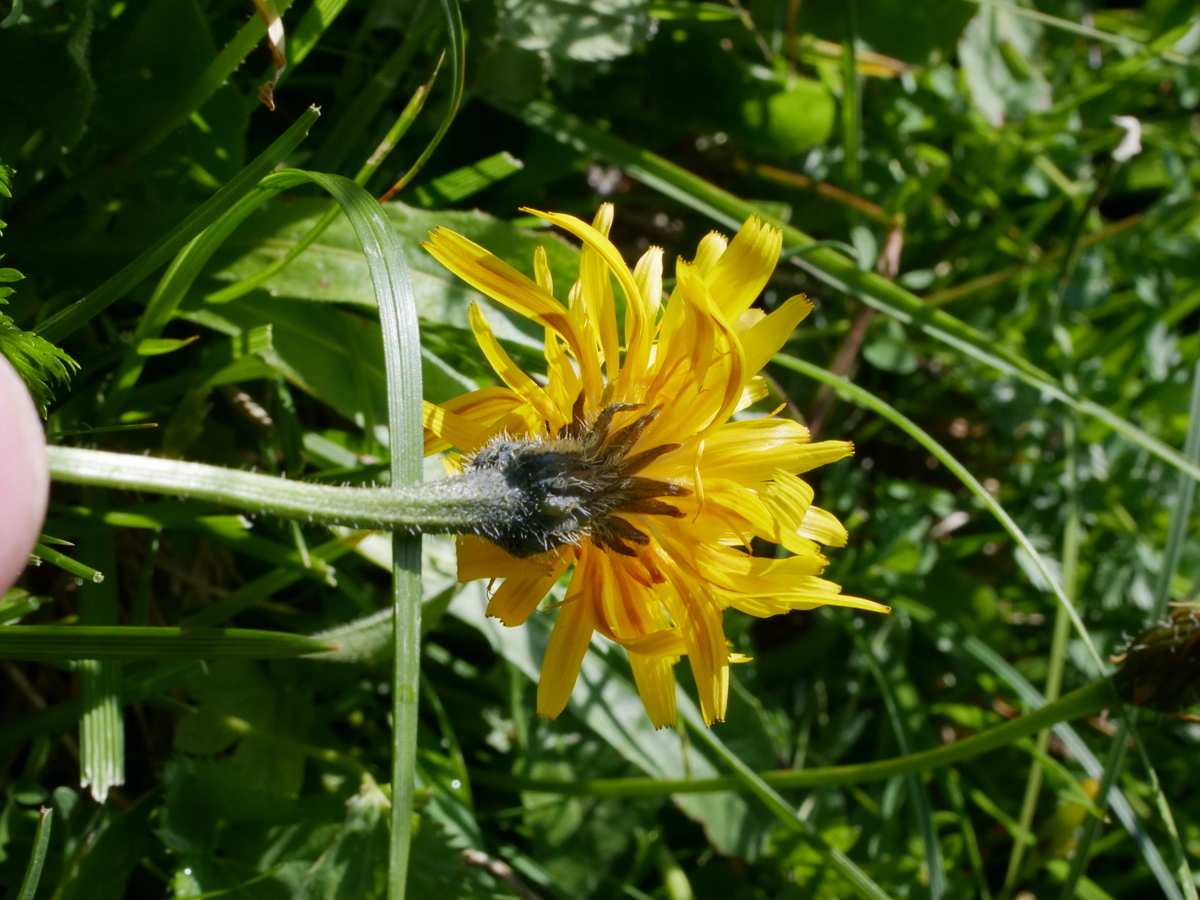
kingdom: Plantae
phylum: Tracheophyta
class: Magnoliopsida
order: Asterales
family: Asteraceae
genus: Leontodon
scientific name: Leontodon hispidus
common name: Rough hawkbit
